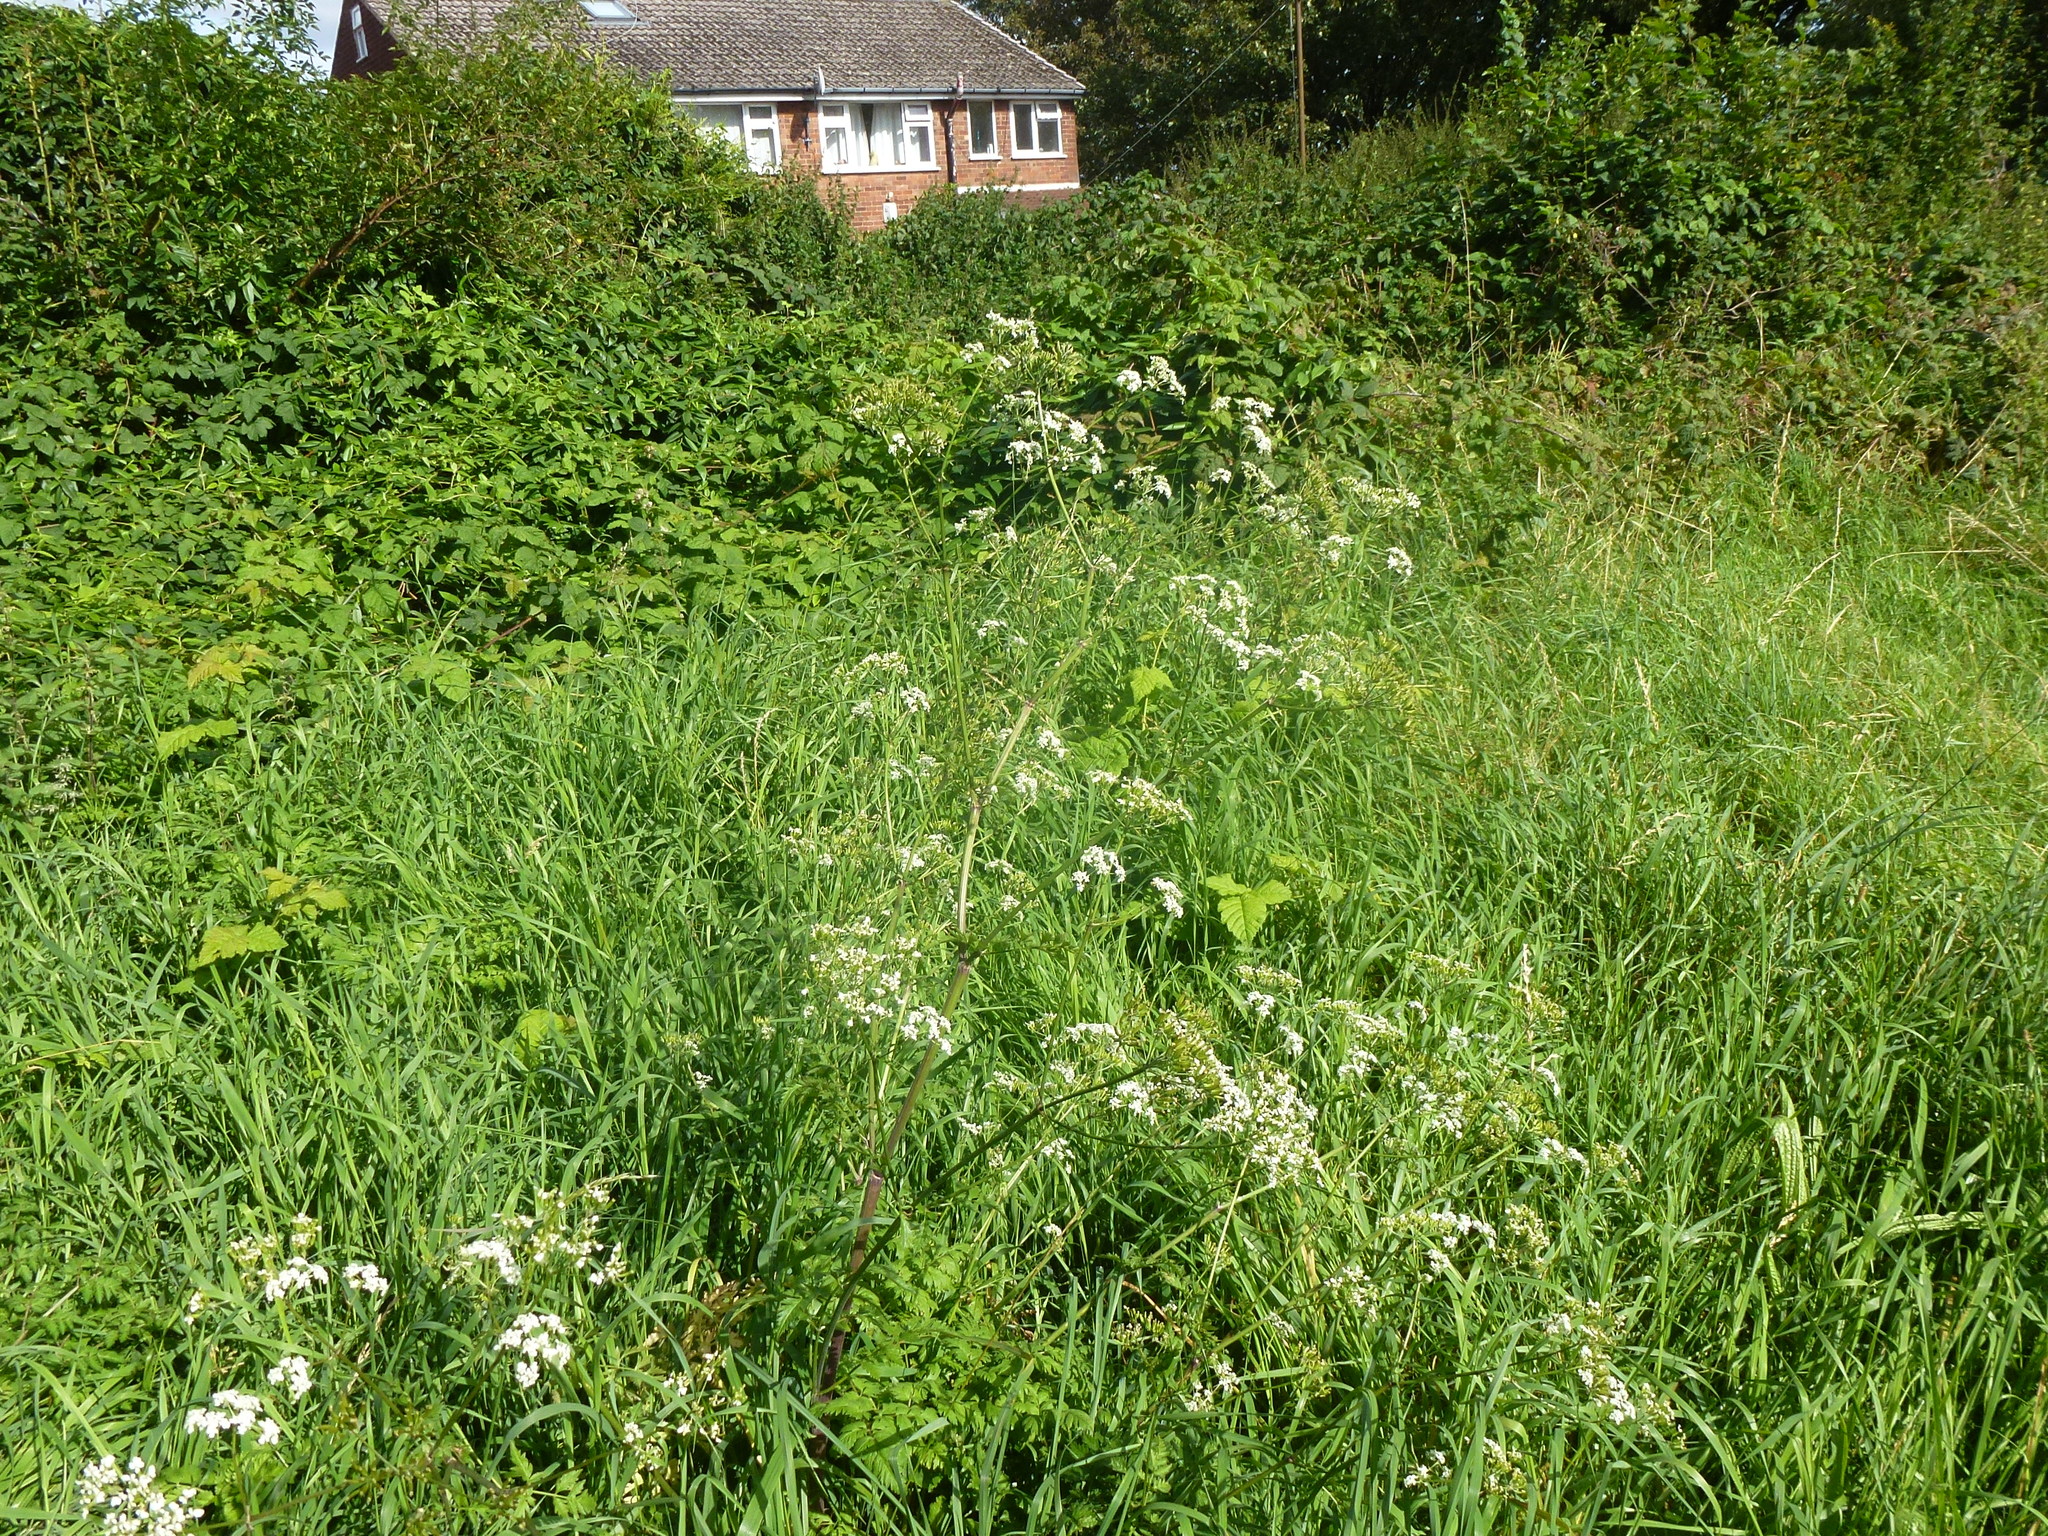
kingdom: Plantae
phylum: Tracheophyta
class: Magnoliopsida
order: Apiales
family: Apiaceae
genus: Anthriscus
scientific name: Anthriscus sylvestris
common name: Cow parsley
